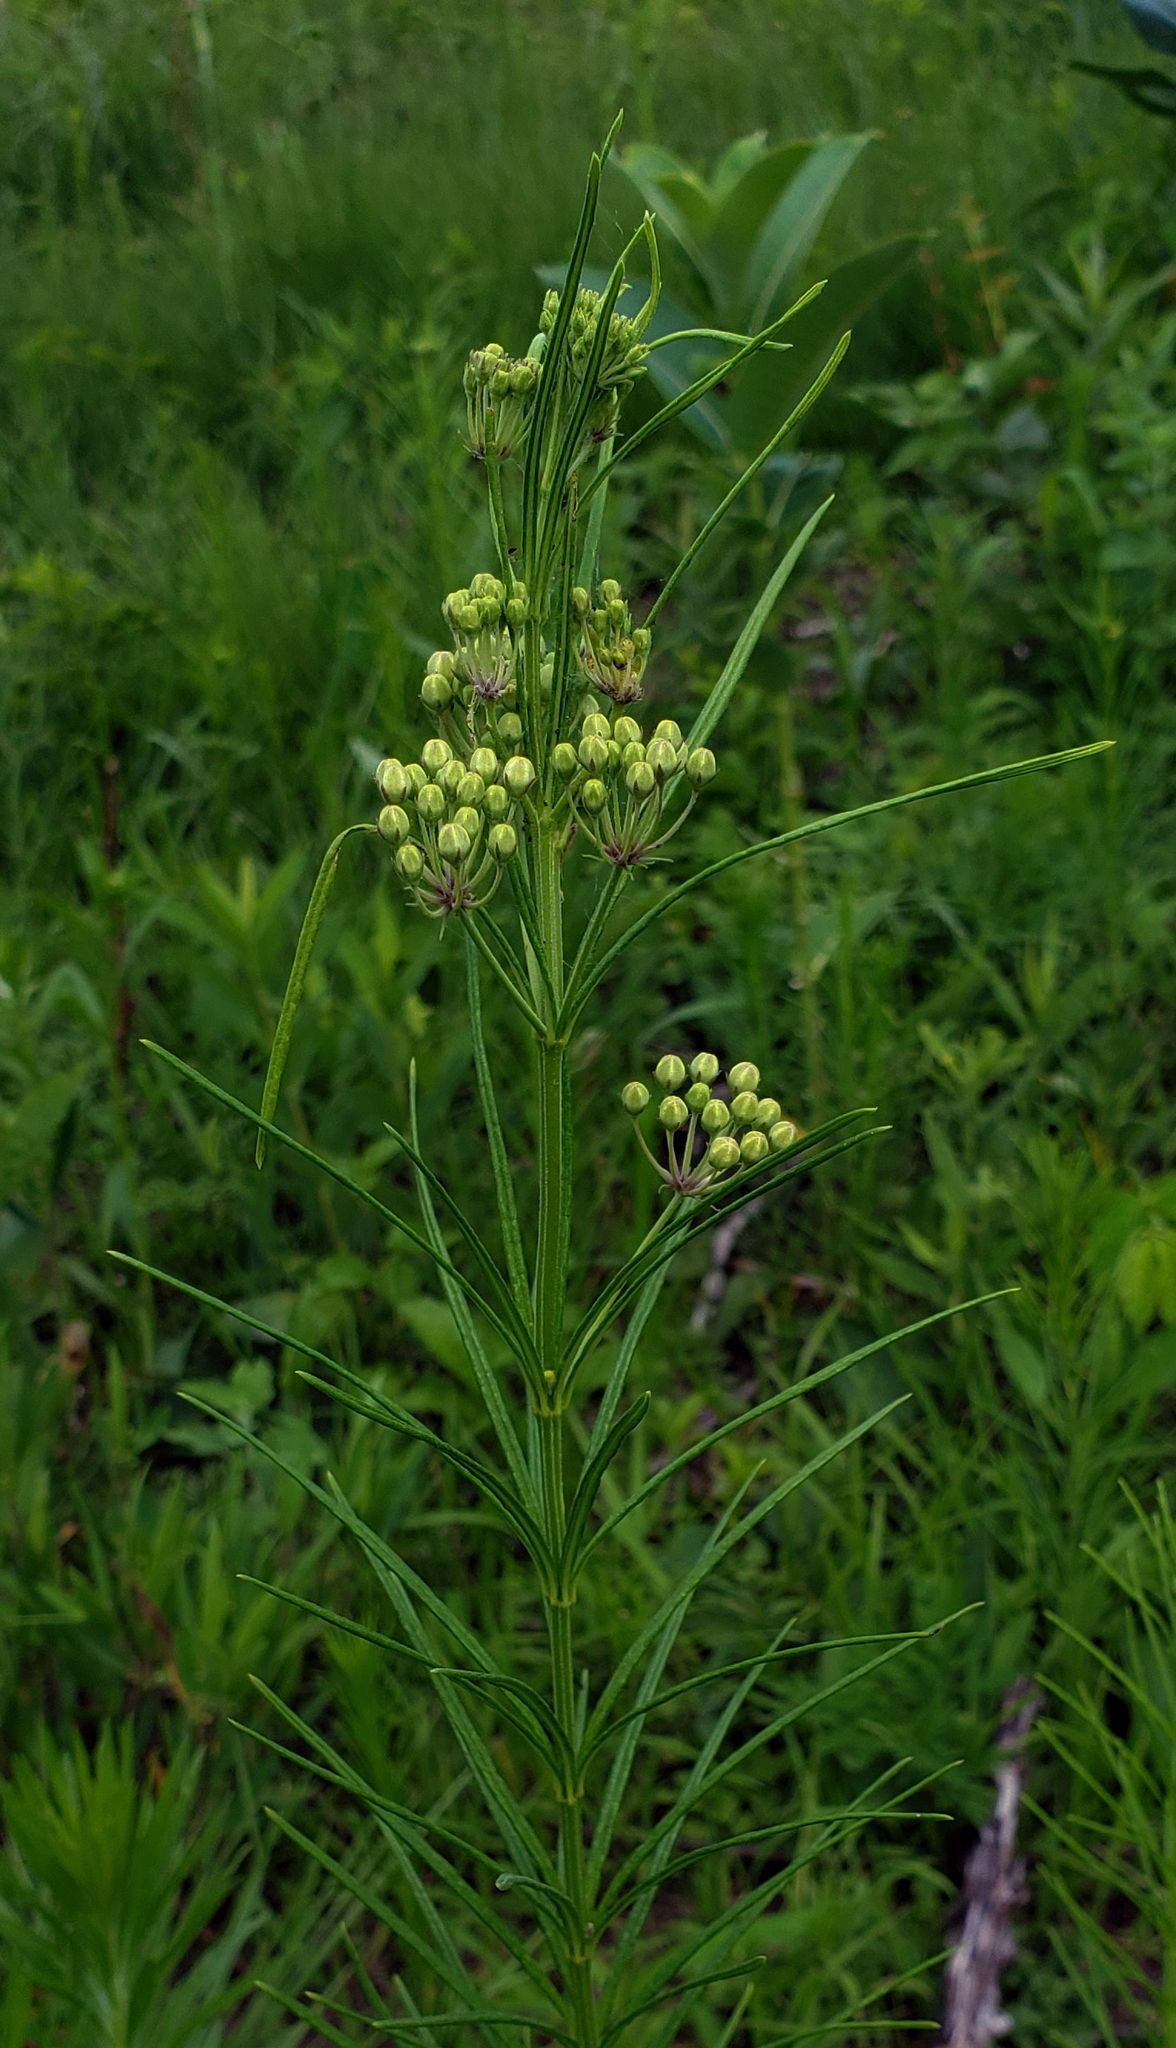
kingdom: Plantae
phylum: Tracheophyta
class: Magnoliopsida
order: Gentianales
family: Apocynaceae
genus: Asclepias
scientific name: Asclepias verticillata
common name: Eastern whorled milkweed
